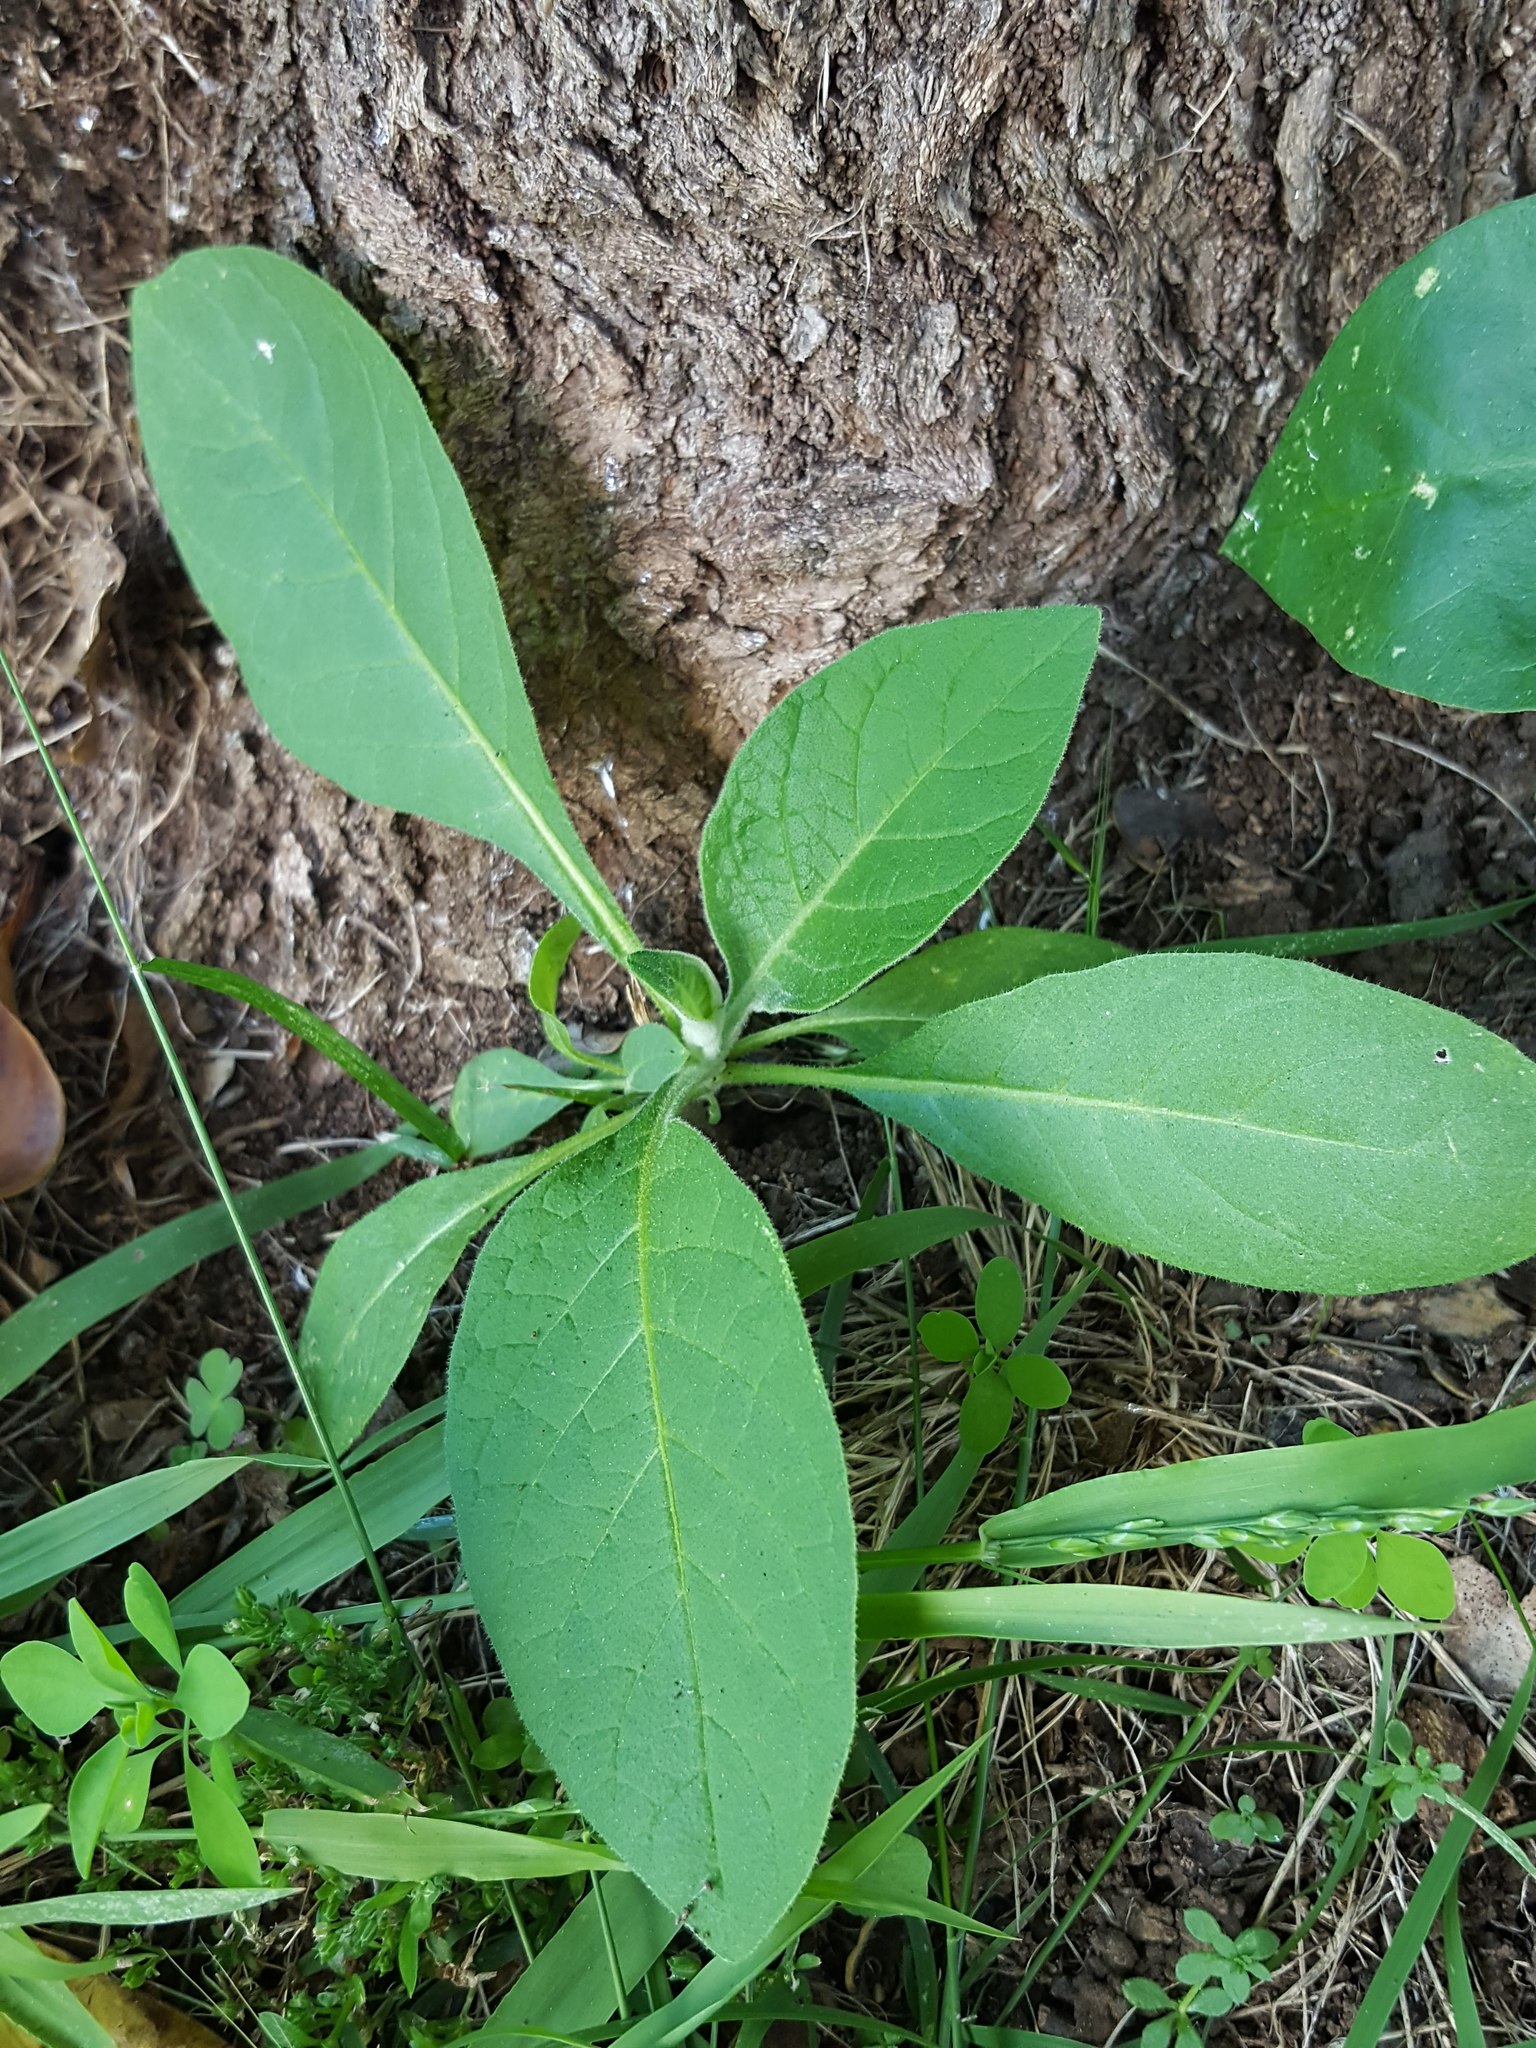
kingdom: Plantae
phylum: Tracheophyta
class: Magnoliopsida
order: Solanales
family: Solanaceae
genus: Solanum
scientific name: Solanum mauritianum
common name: Earleaf nightshade
